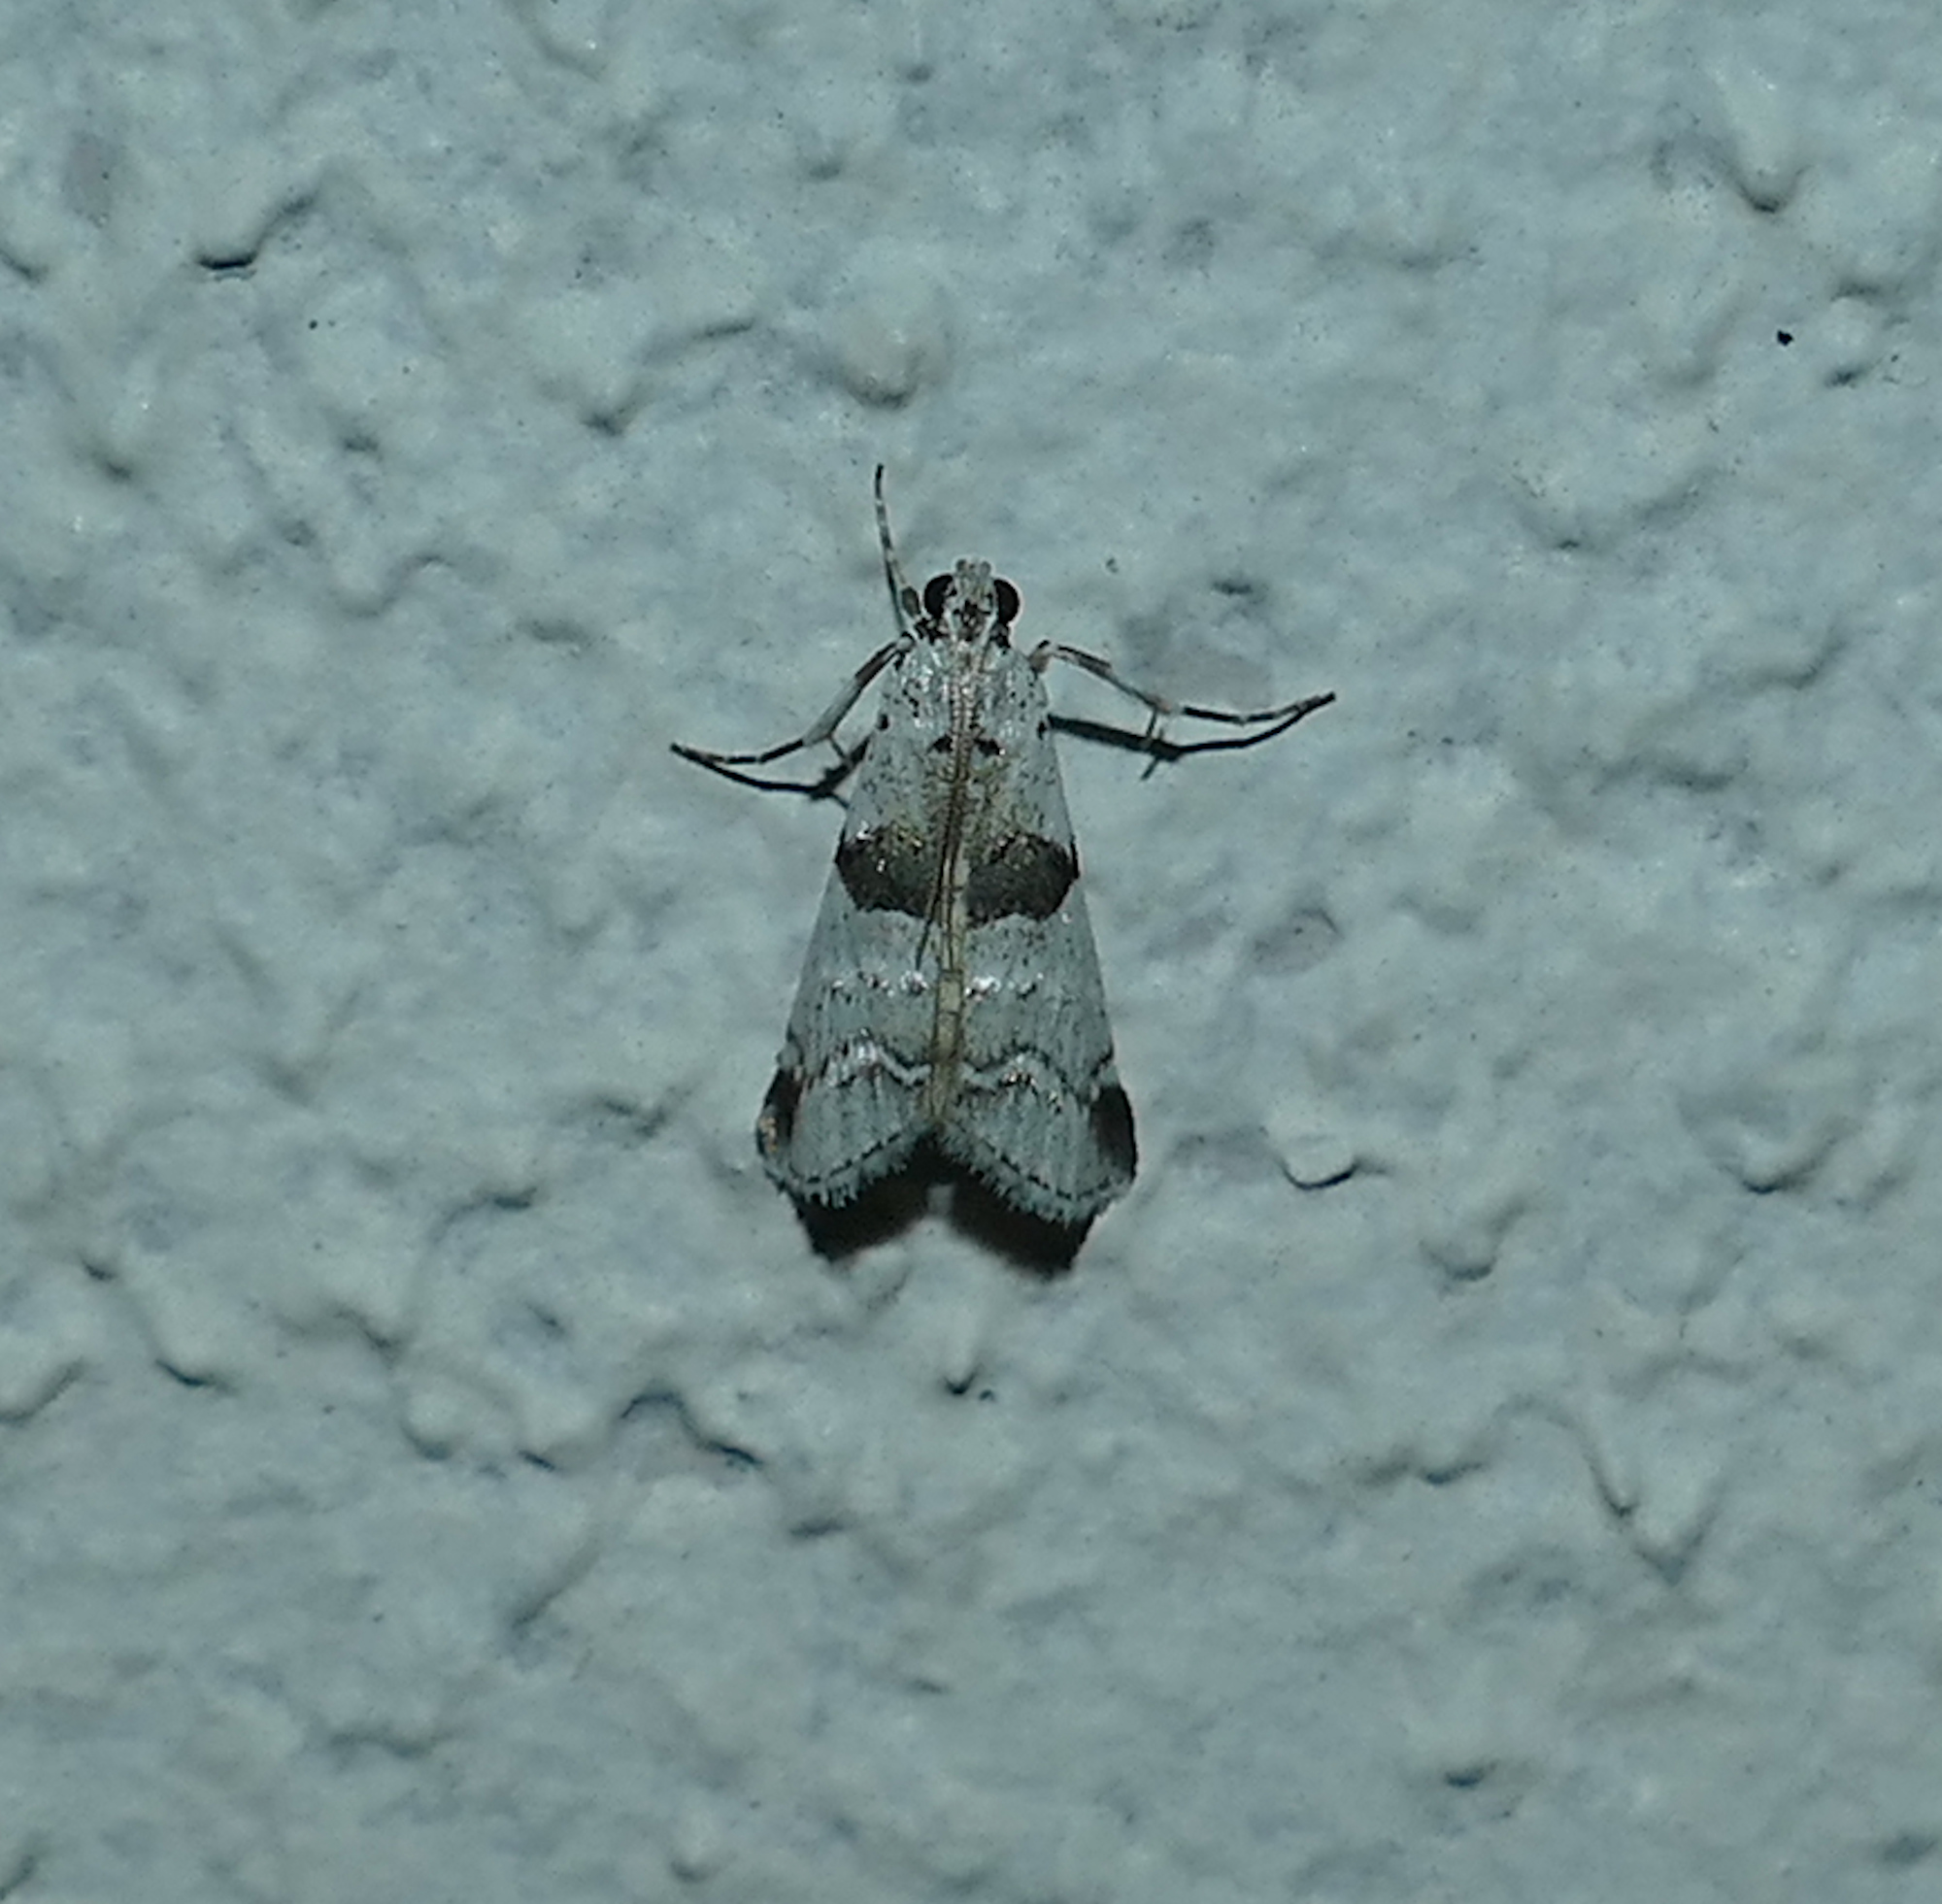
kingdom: Animalia
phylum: Arthropoda
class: Insecta
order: Lepidoptera
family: Pyralidae
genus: Tallula
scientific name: Tallula atrifascialis
